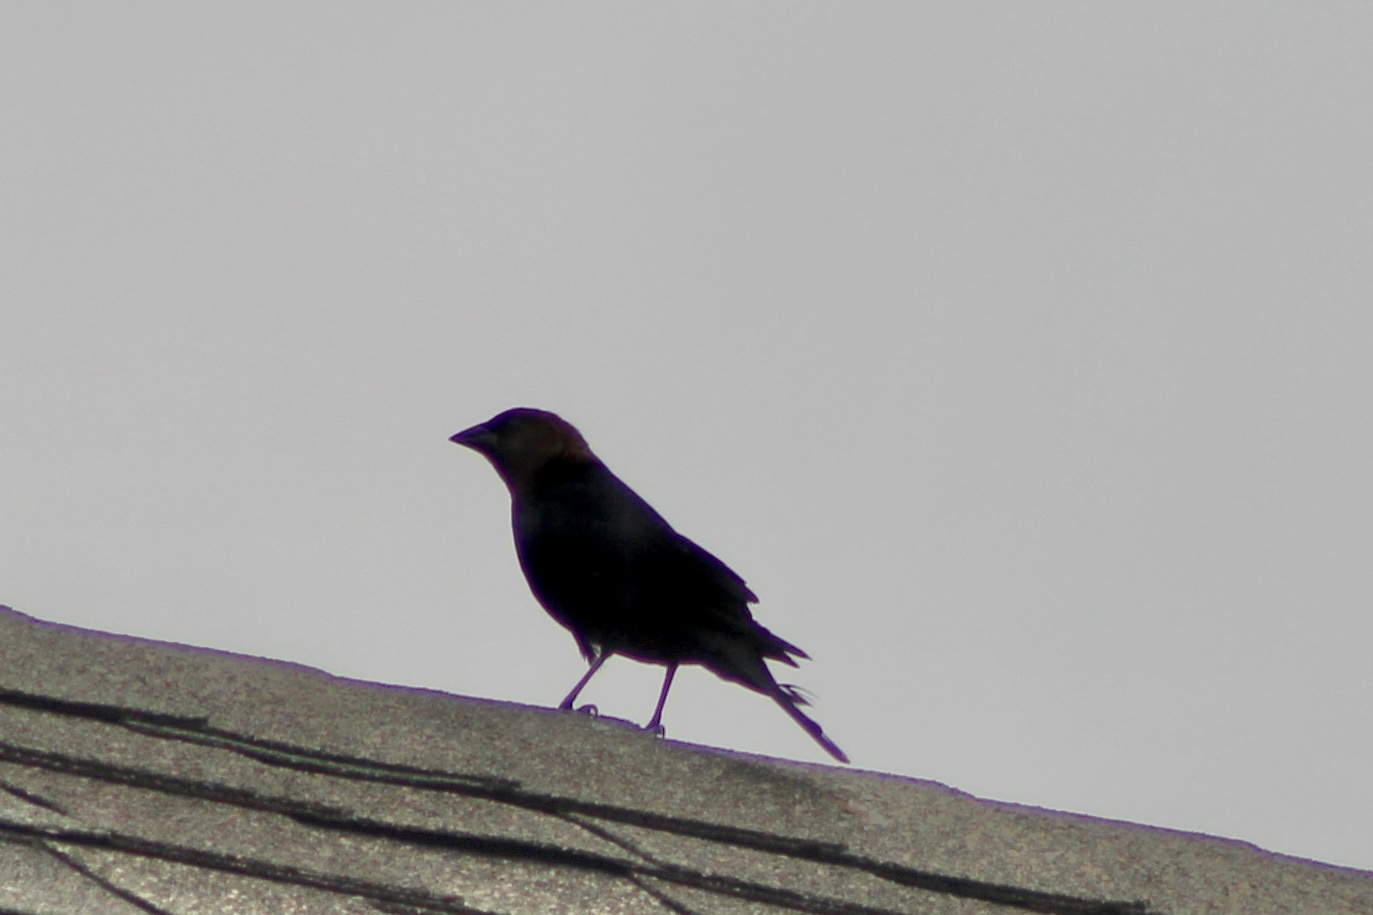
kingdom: Animalia
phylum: Chordata
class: Aves
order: Passeriformes
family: Icteridae
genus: Molothrus
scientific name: Molothrus ater
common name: Brown-headed cowbird
